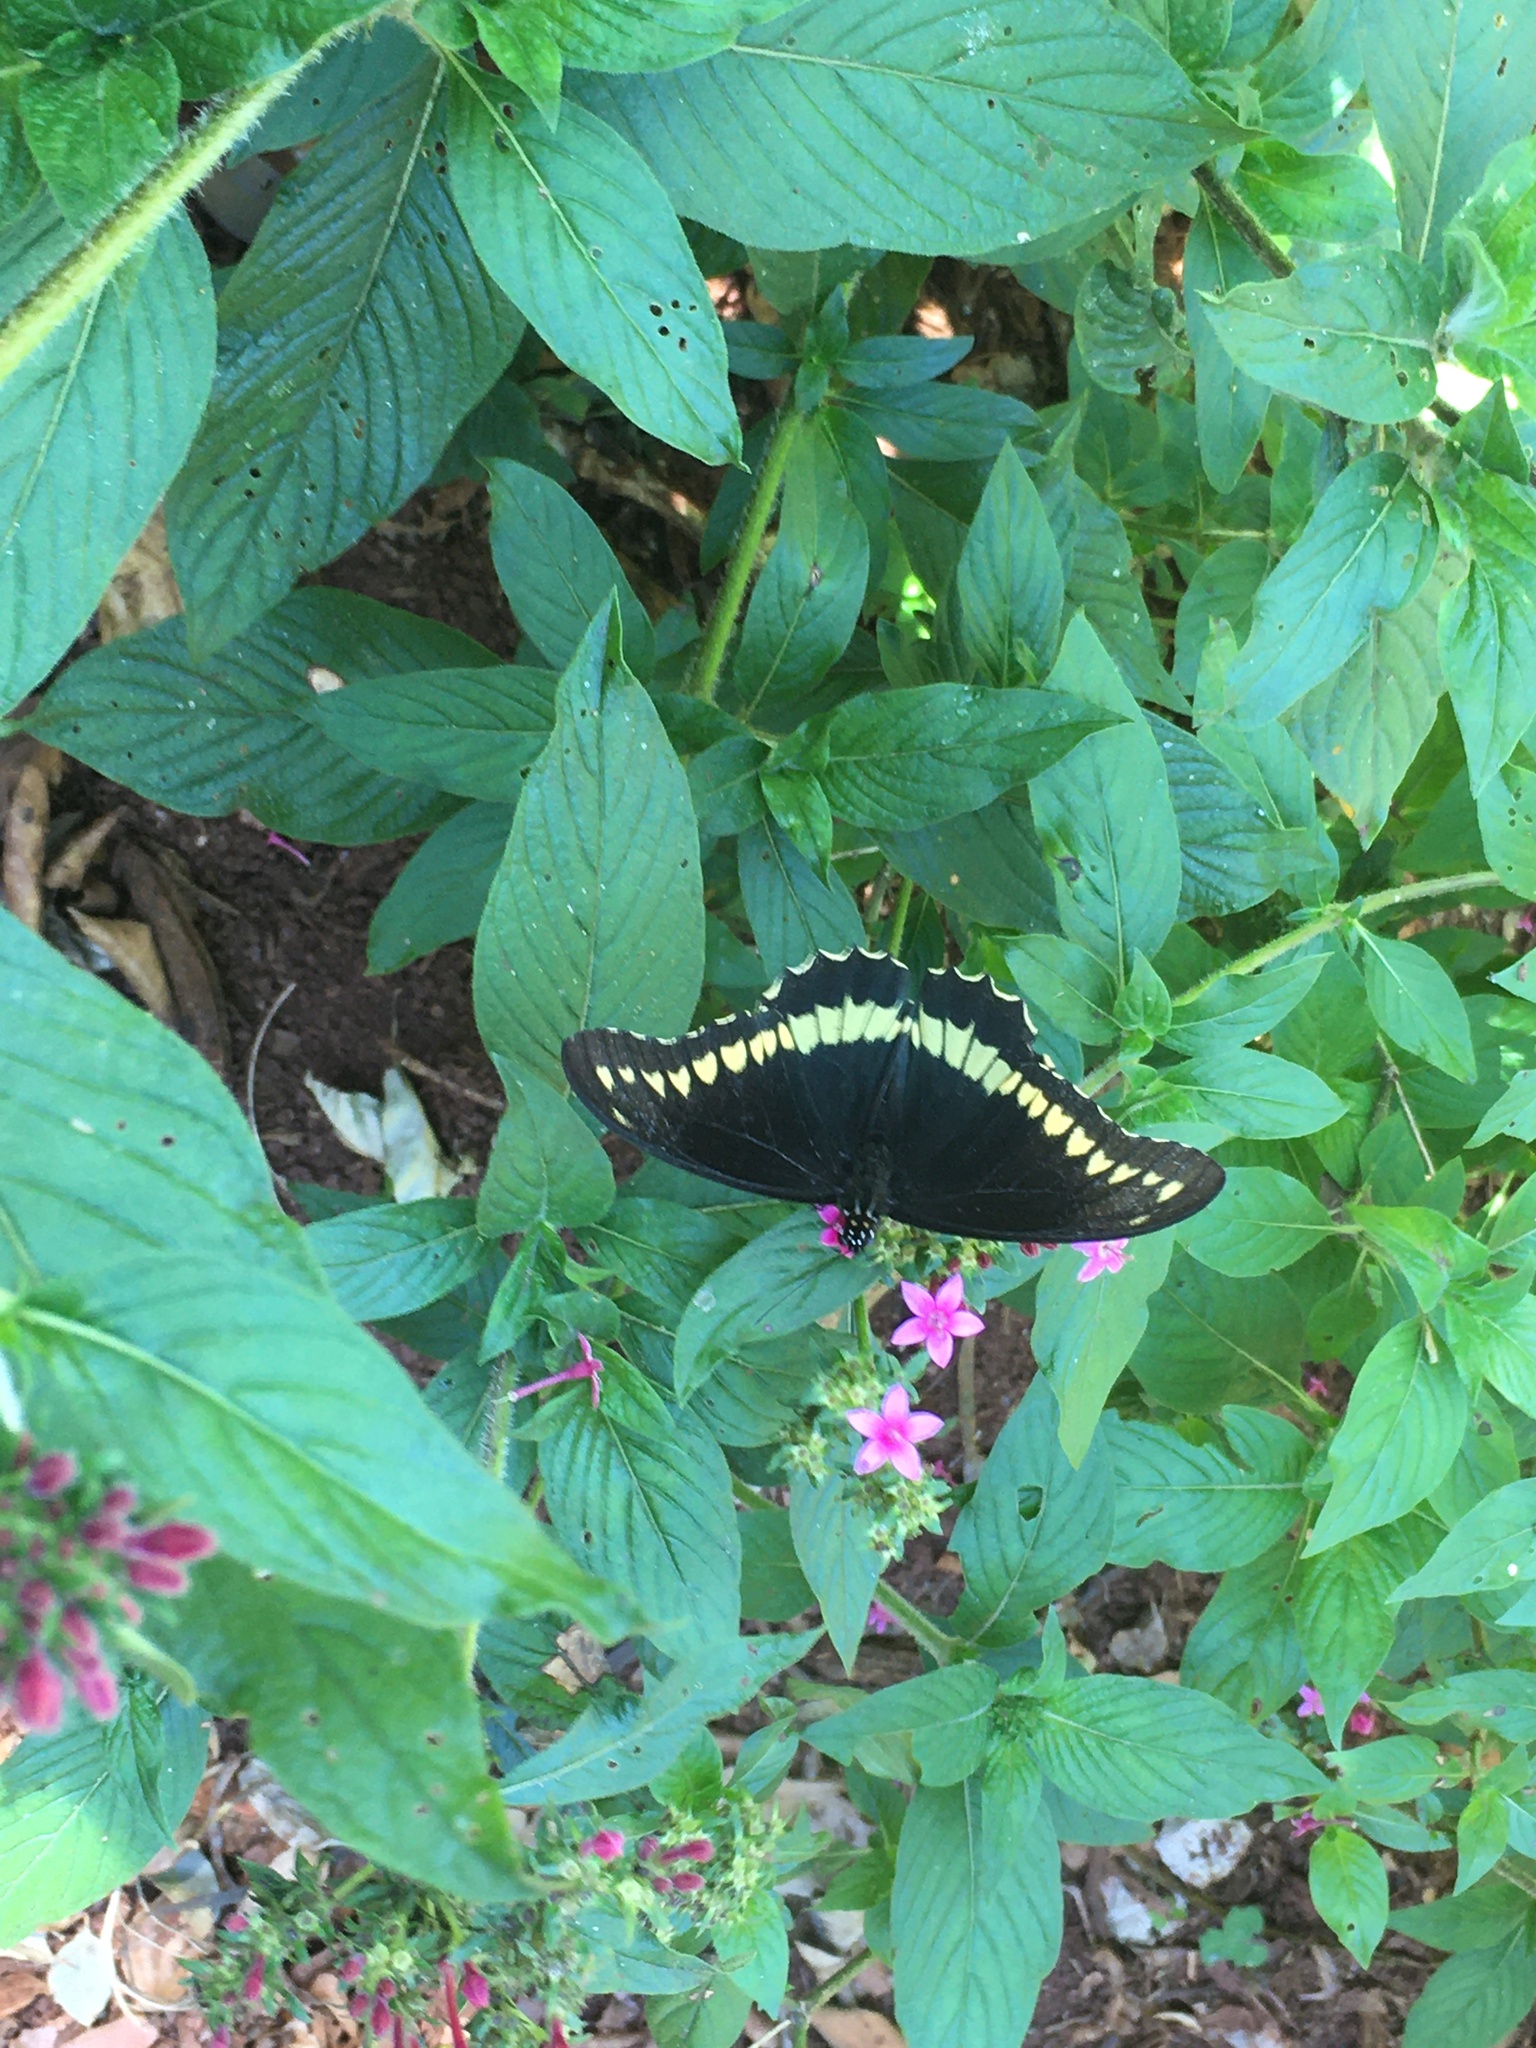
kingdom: Animalia
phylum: Arthropoda
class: Insecta
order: Lepidoptera
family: Papilionidae
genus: Battus
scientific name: Battus polydamas
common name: Polydamas swallowtail
